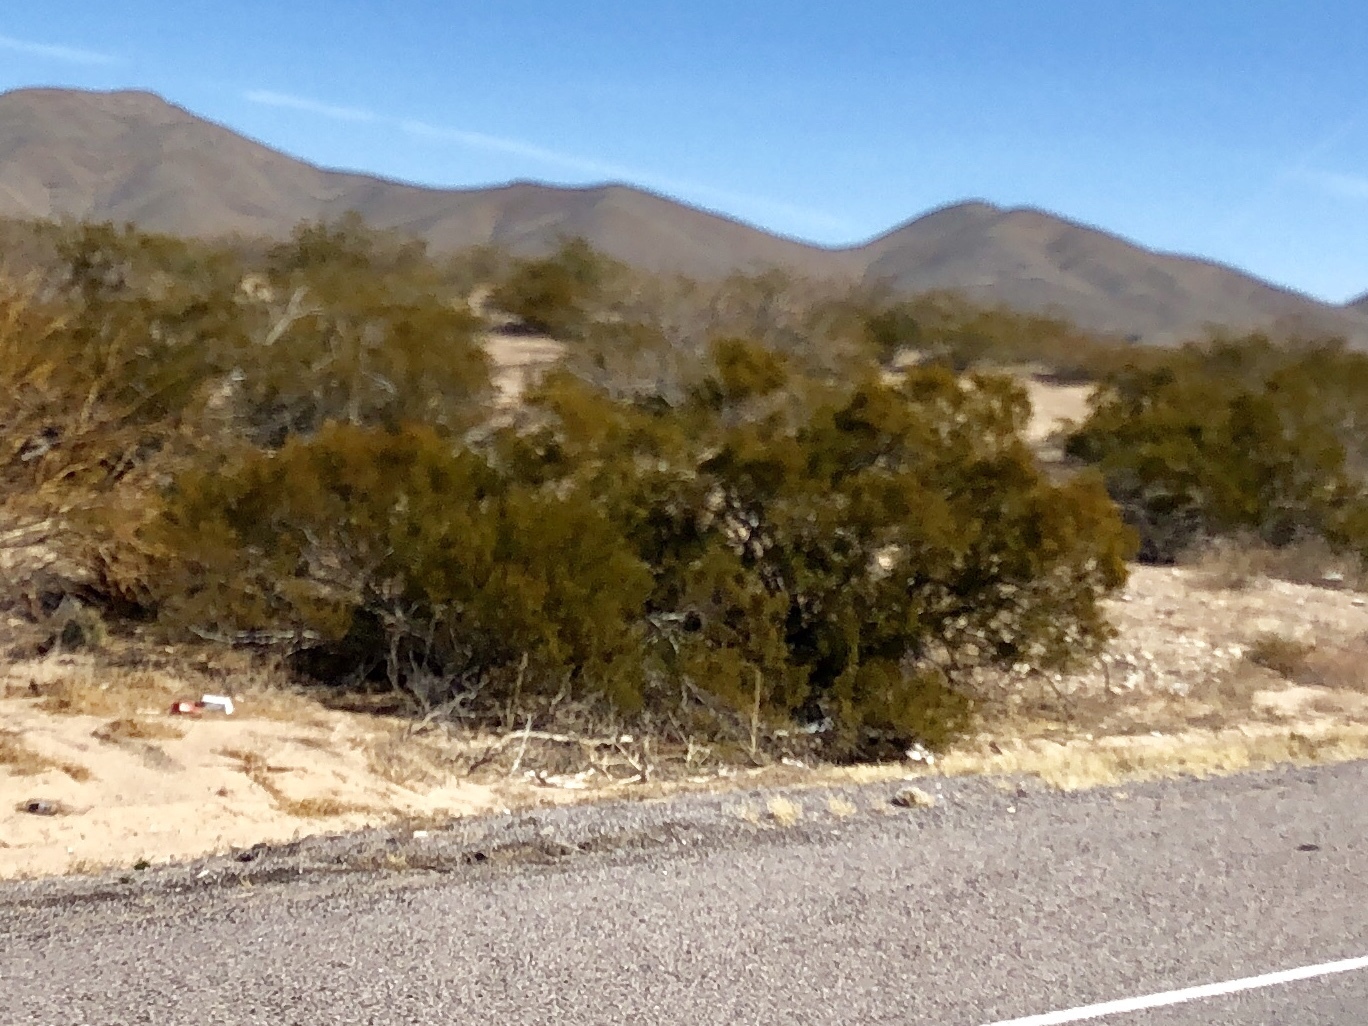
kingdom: Plantae
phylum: Tracheophyta
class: Magnoliopsida
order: Zygophyllales
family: Zygophyllaceae
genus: Larrea
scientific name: Larrea tridentata
